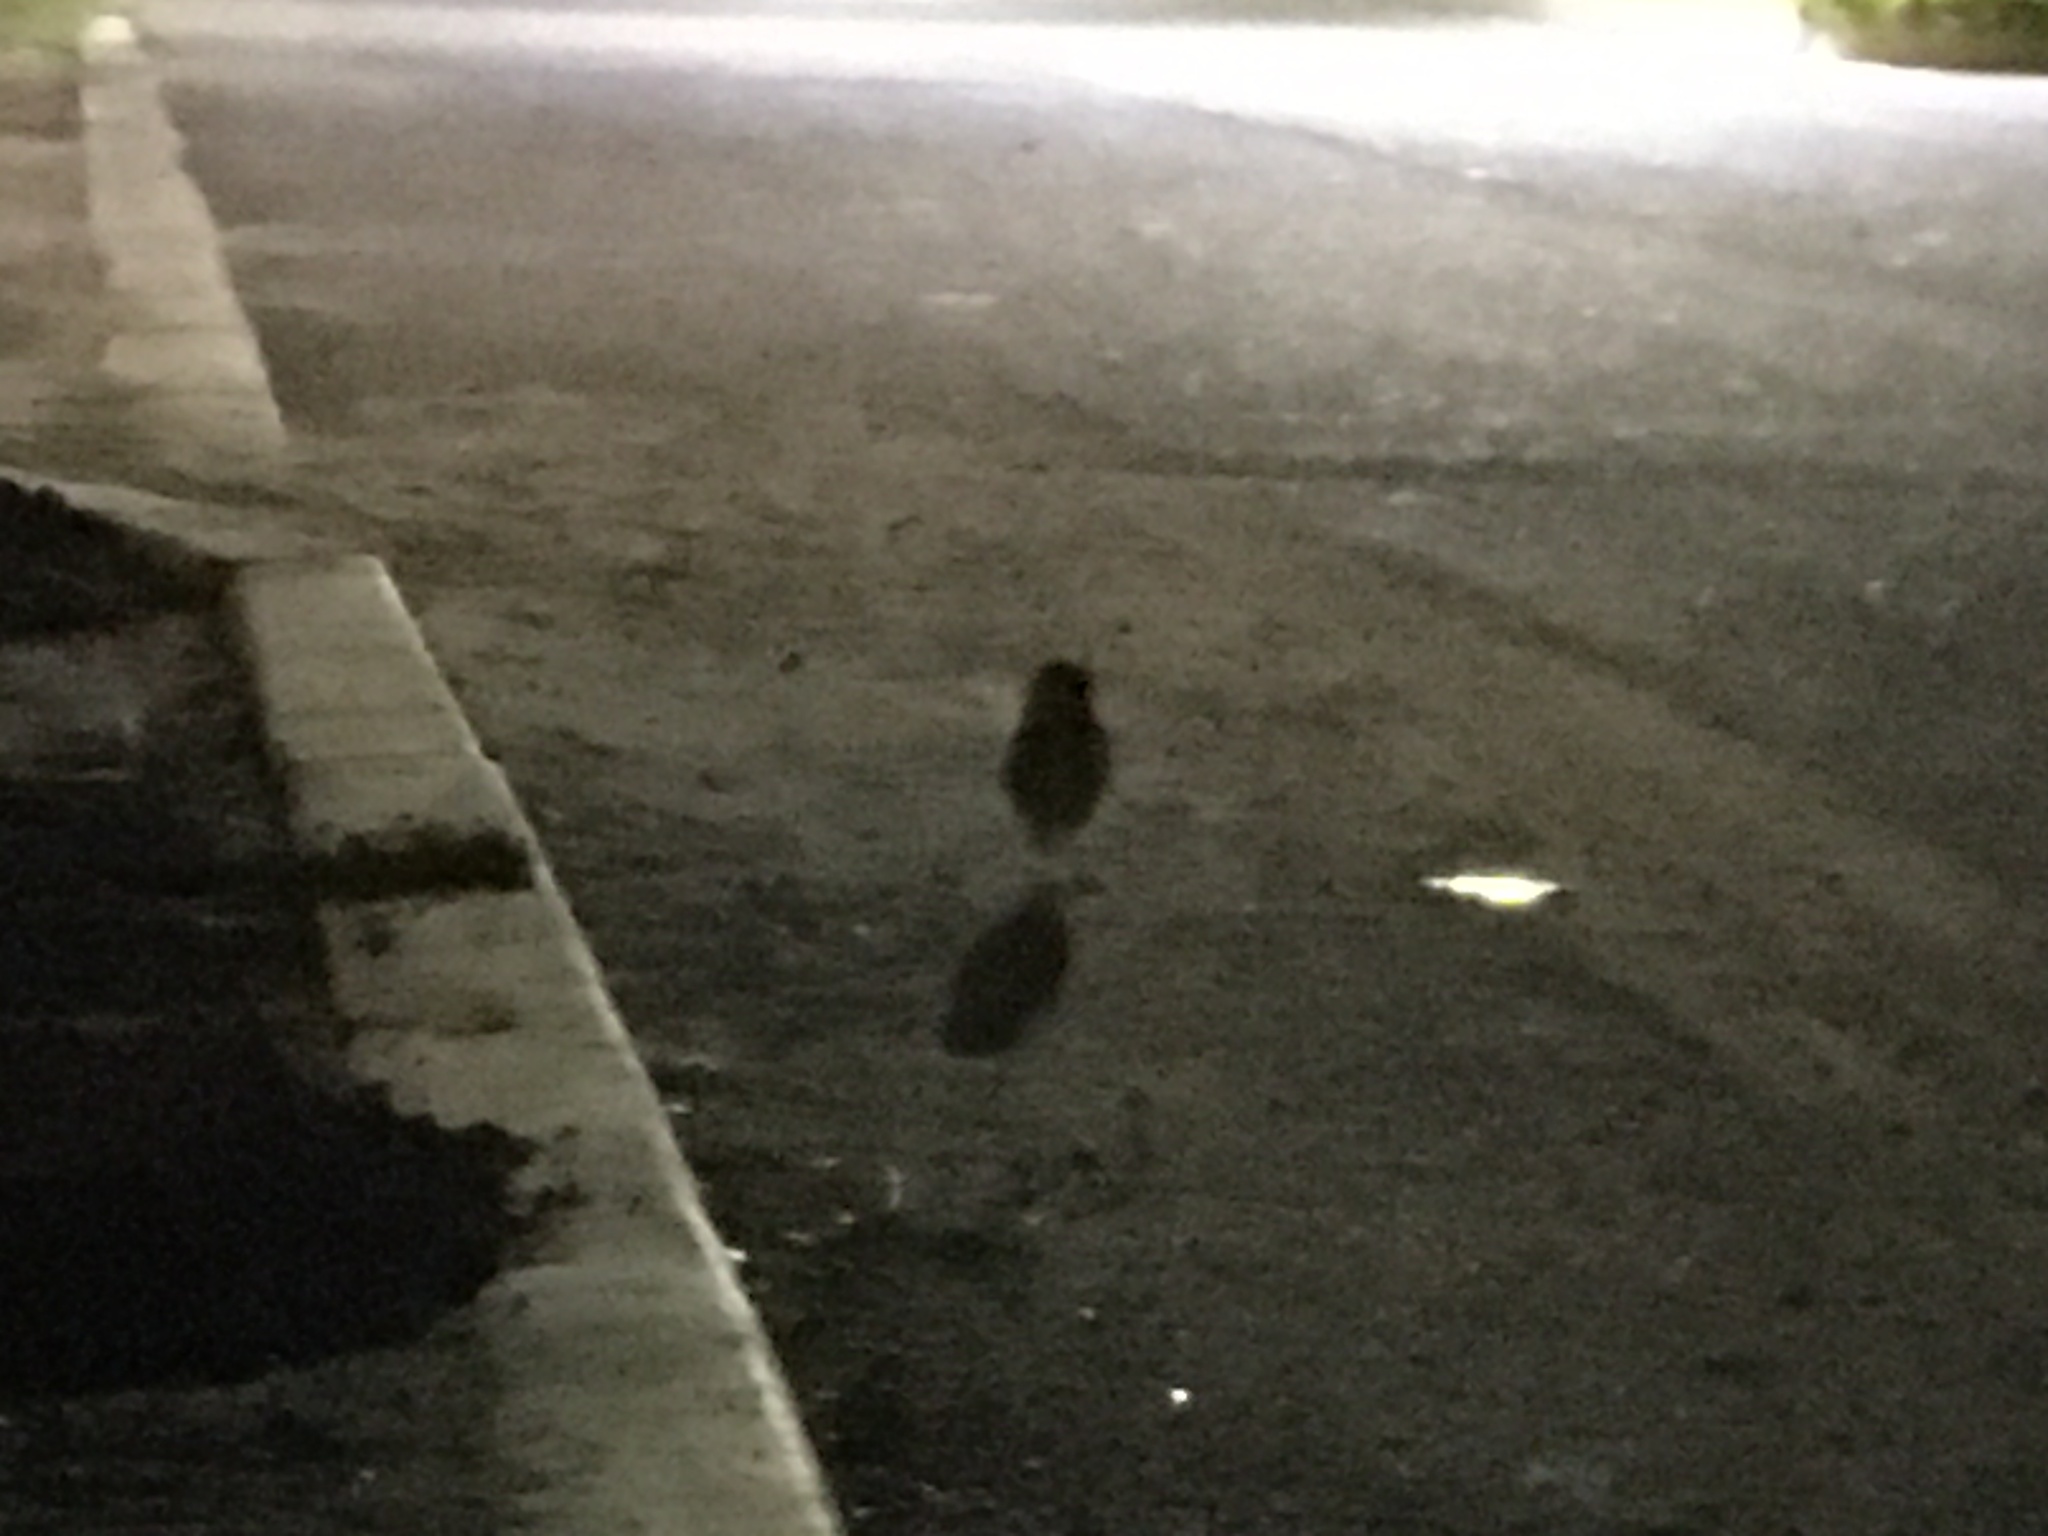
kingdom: Animalia
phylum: Chordata
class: Aves
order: Strigiformes
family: Strigidae
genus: Athene
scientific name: Athene cunicularia
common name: Burrowing owl
